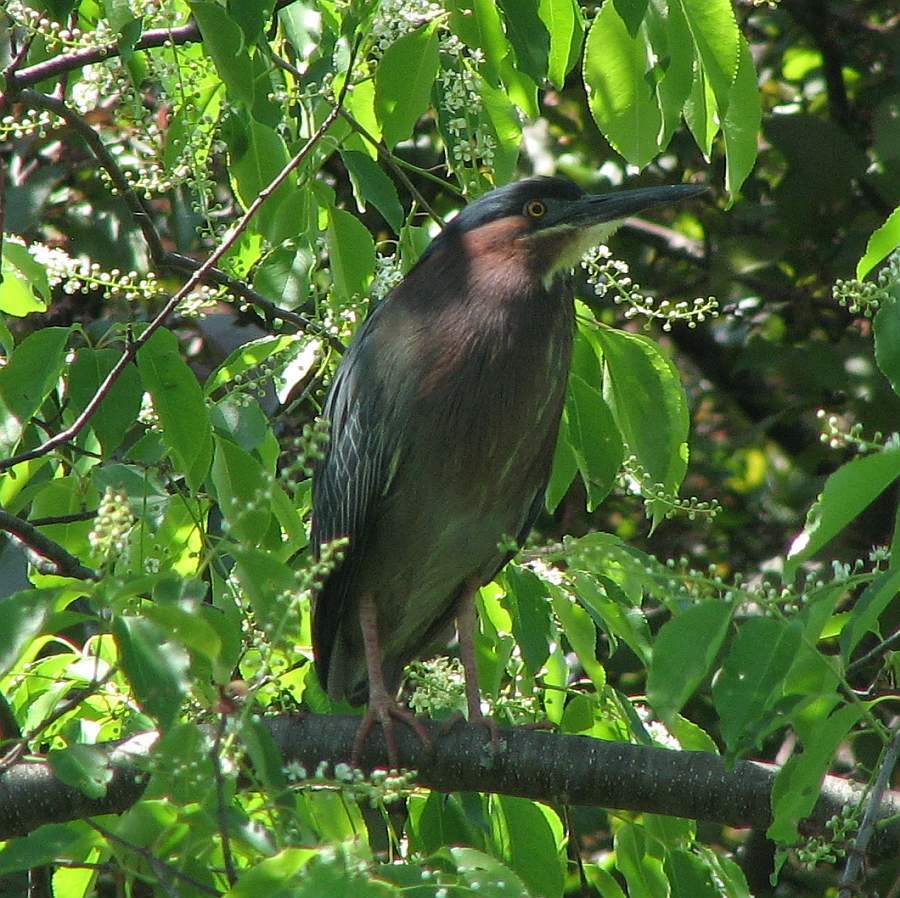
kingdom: Animalia
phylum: Chordata
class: Aves
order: Pelecaniformes
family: Ardeidae
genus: Butorides
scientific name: Butorides virescens
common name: Green heron
